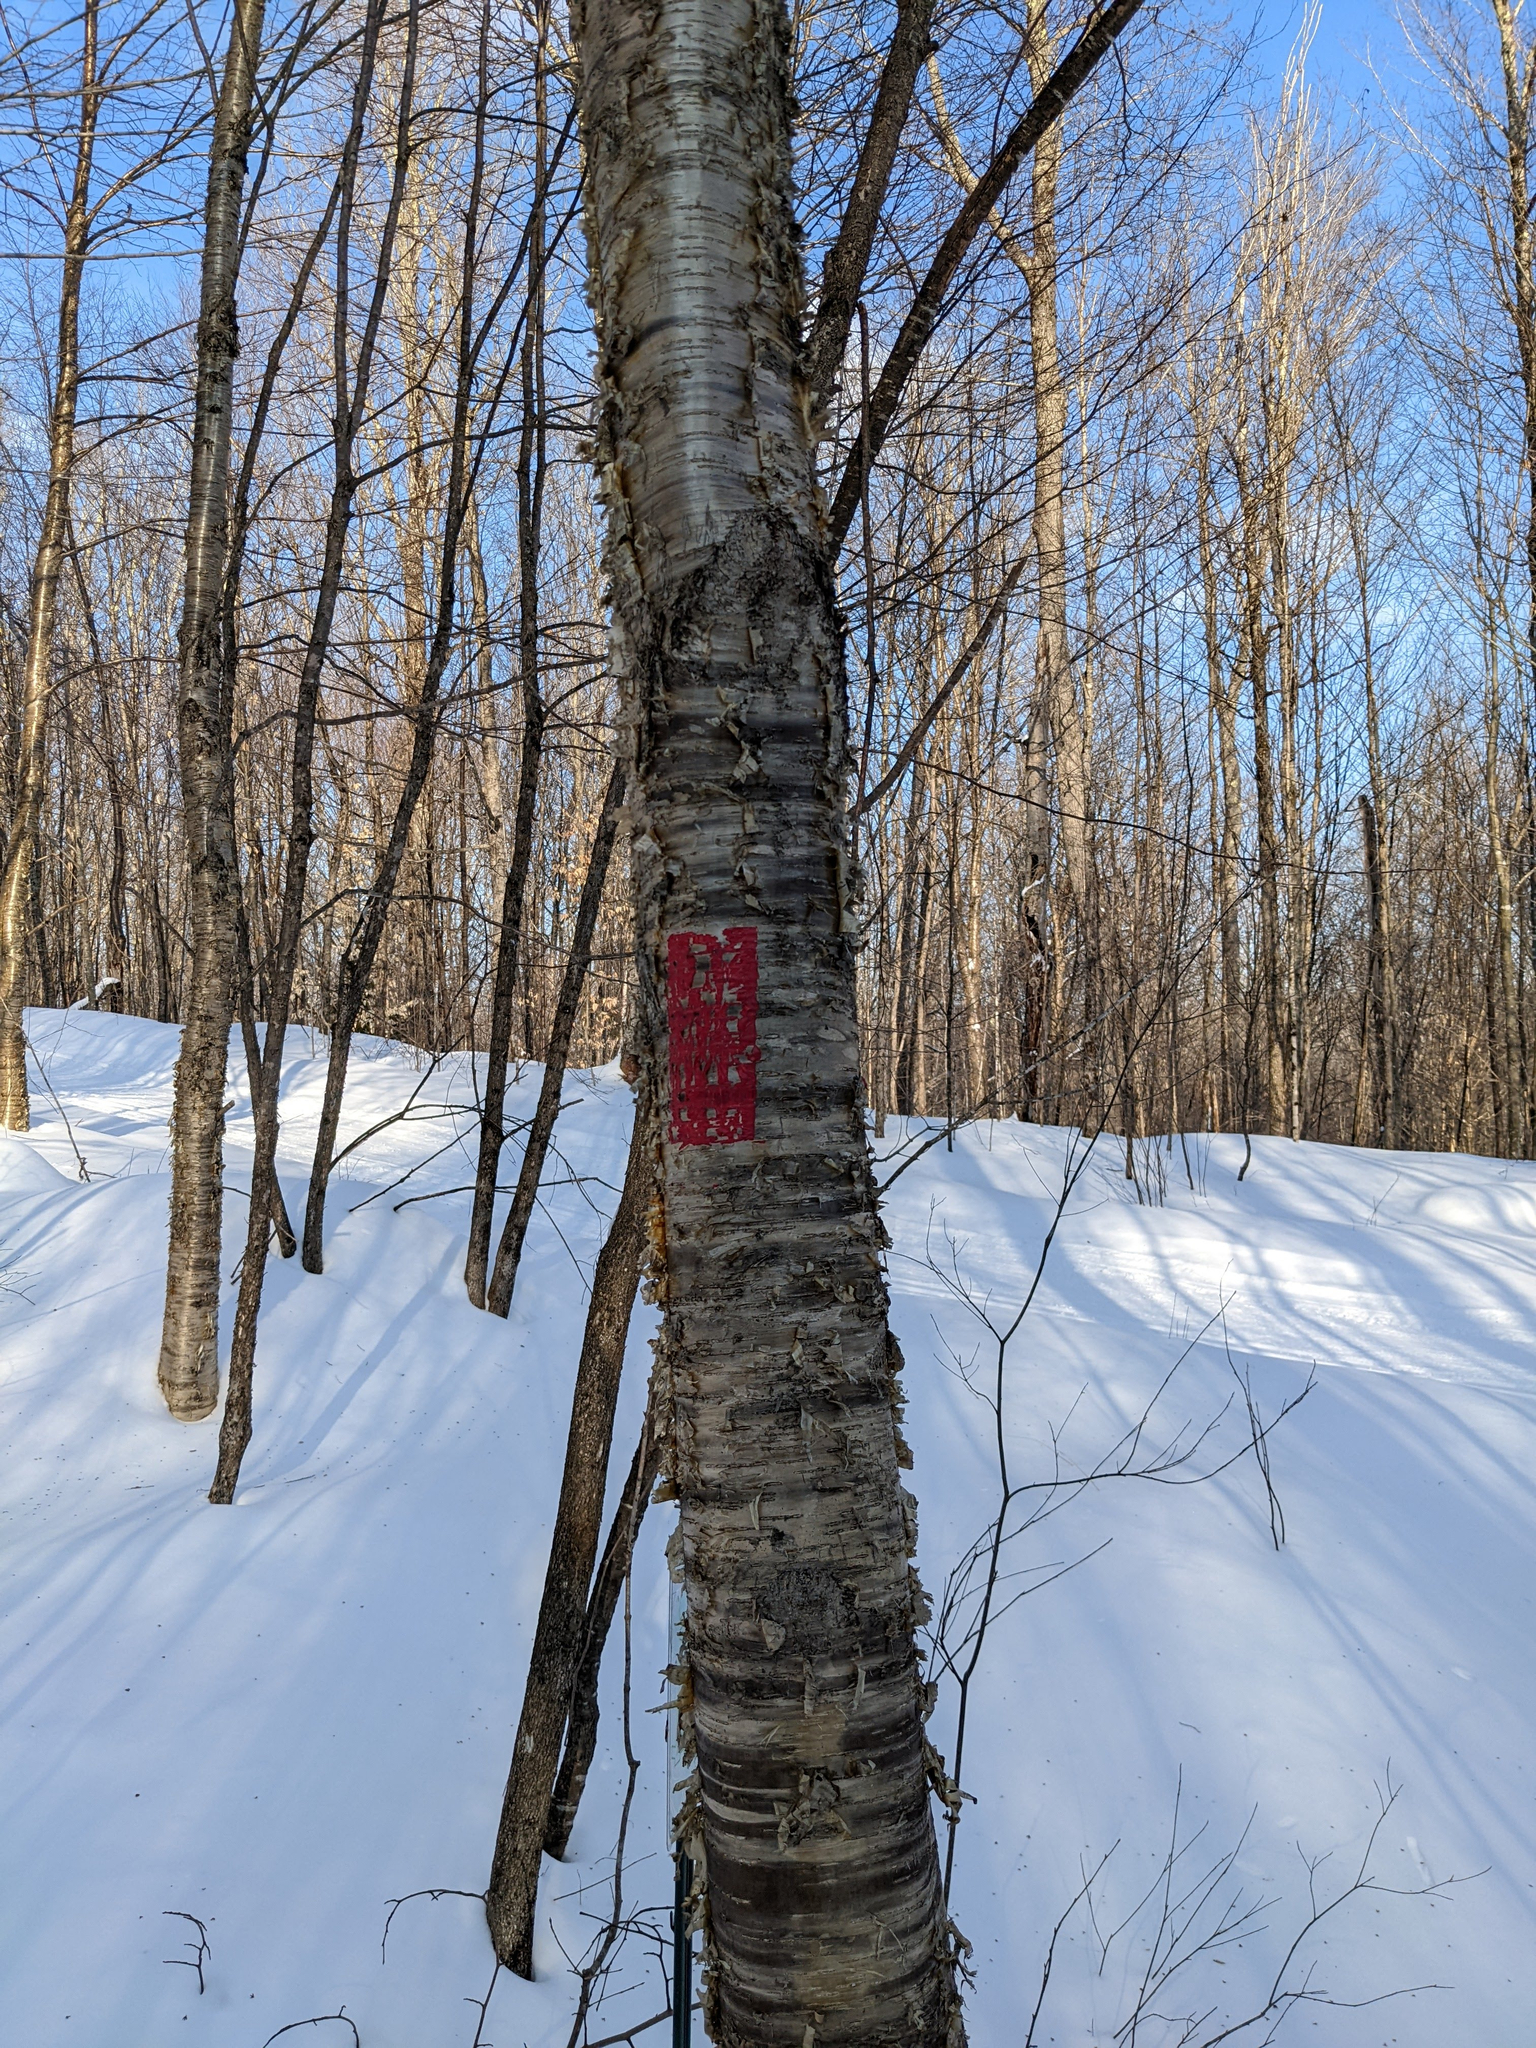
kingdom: Plantae
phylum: Tracheophyta
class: Magnoliopsida
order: Fagales
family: Betulaceae
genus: Betula
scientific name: Betula alleghaniensis
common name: Yellow birch
